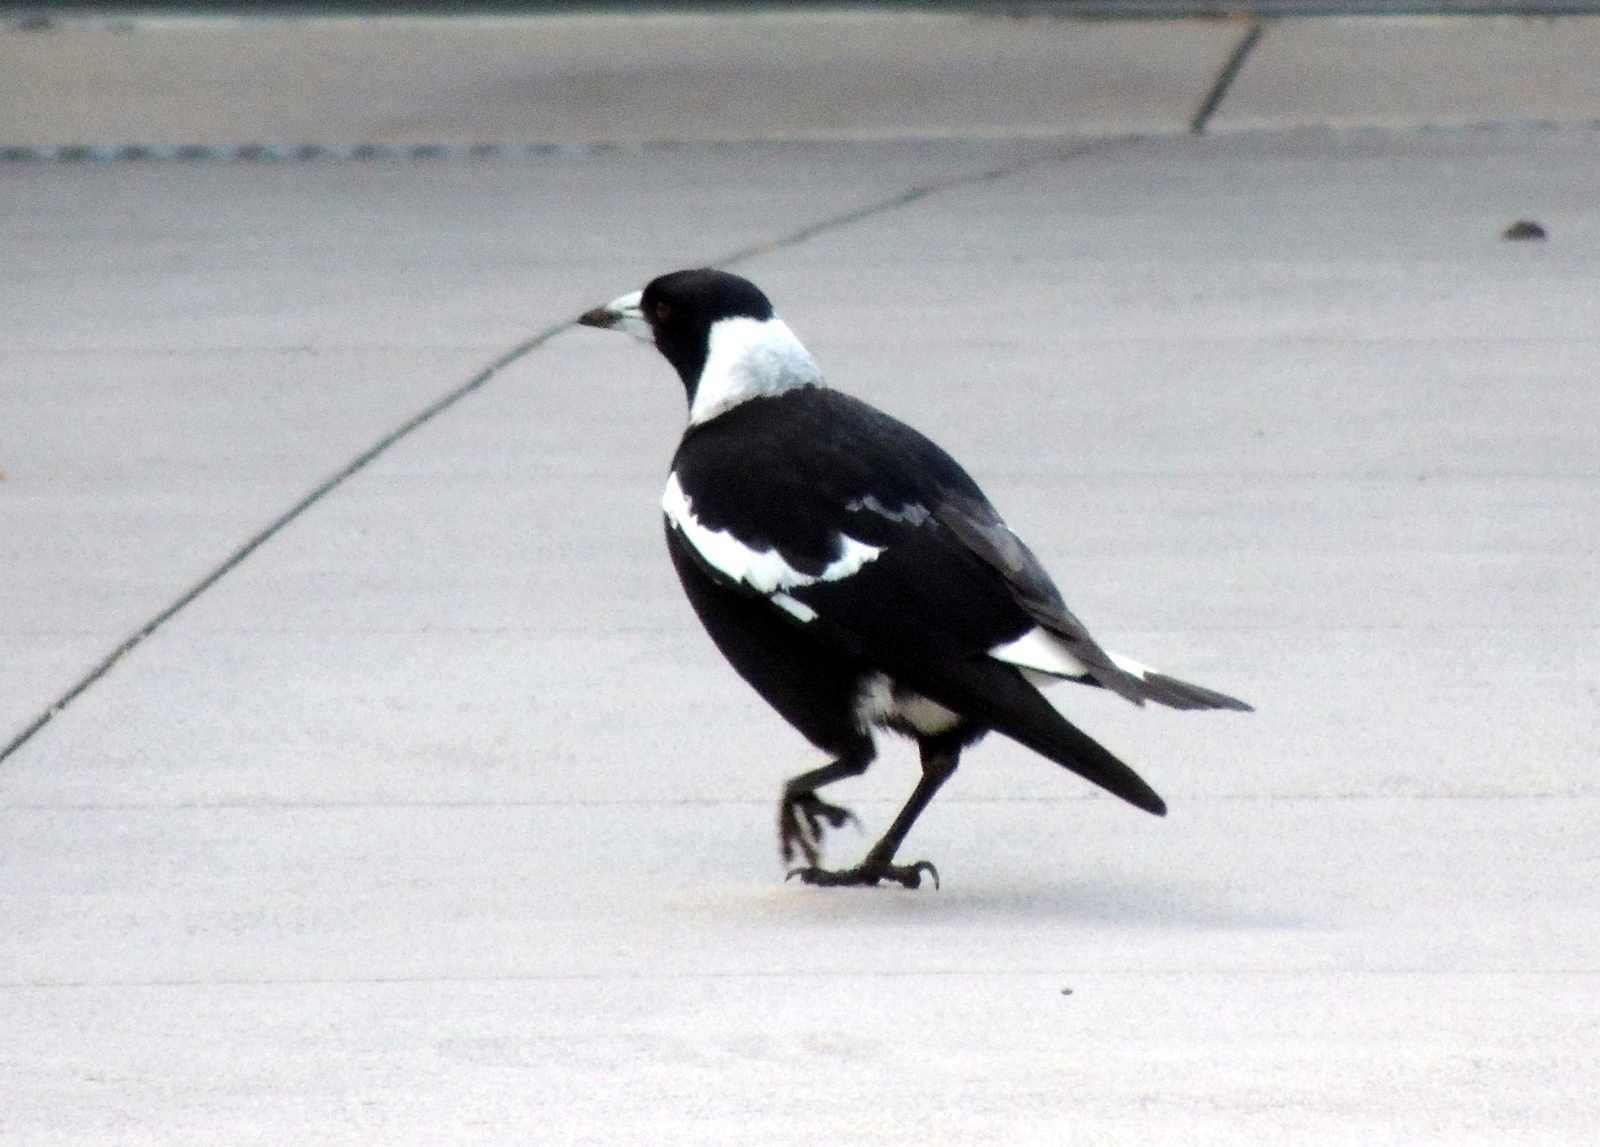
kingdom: Animalia
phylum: Chordata
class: Aves
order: Passeriformes
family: Cracticidae
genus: Gymnorhina
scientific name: Gymnorhina tibicen
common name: Australian magpie
